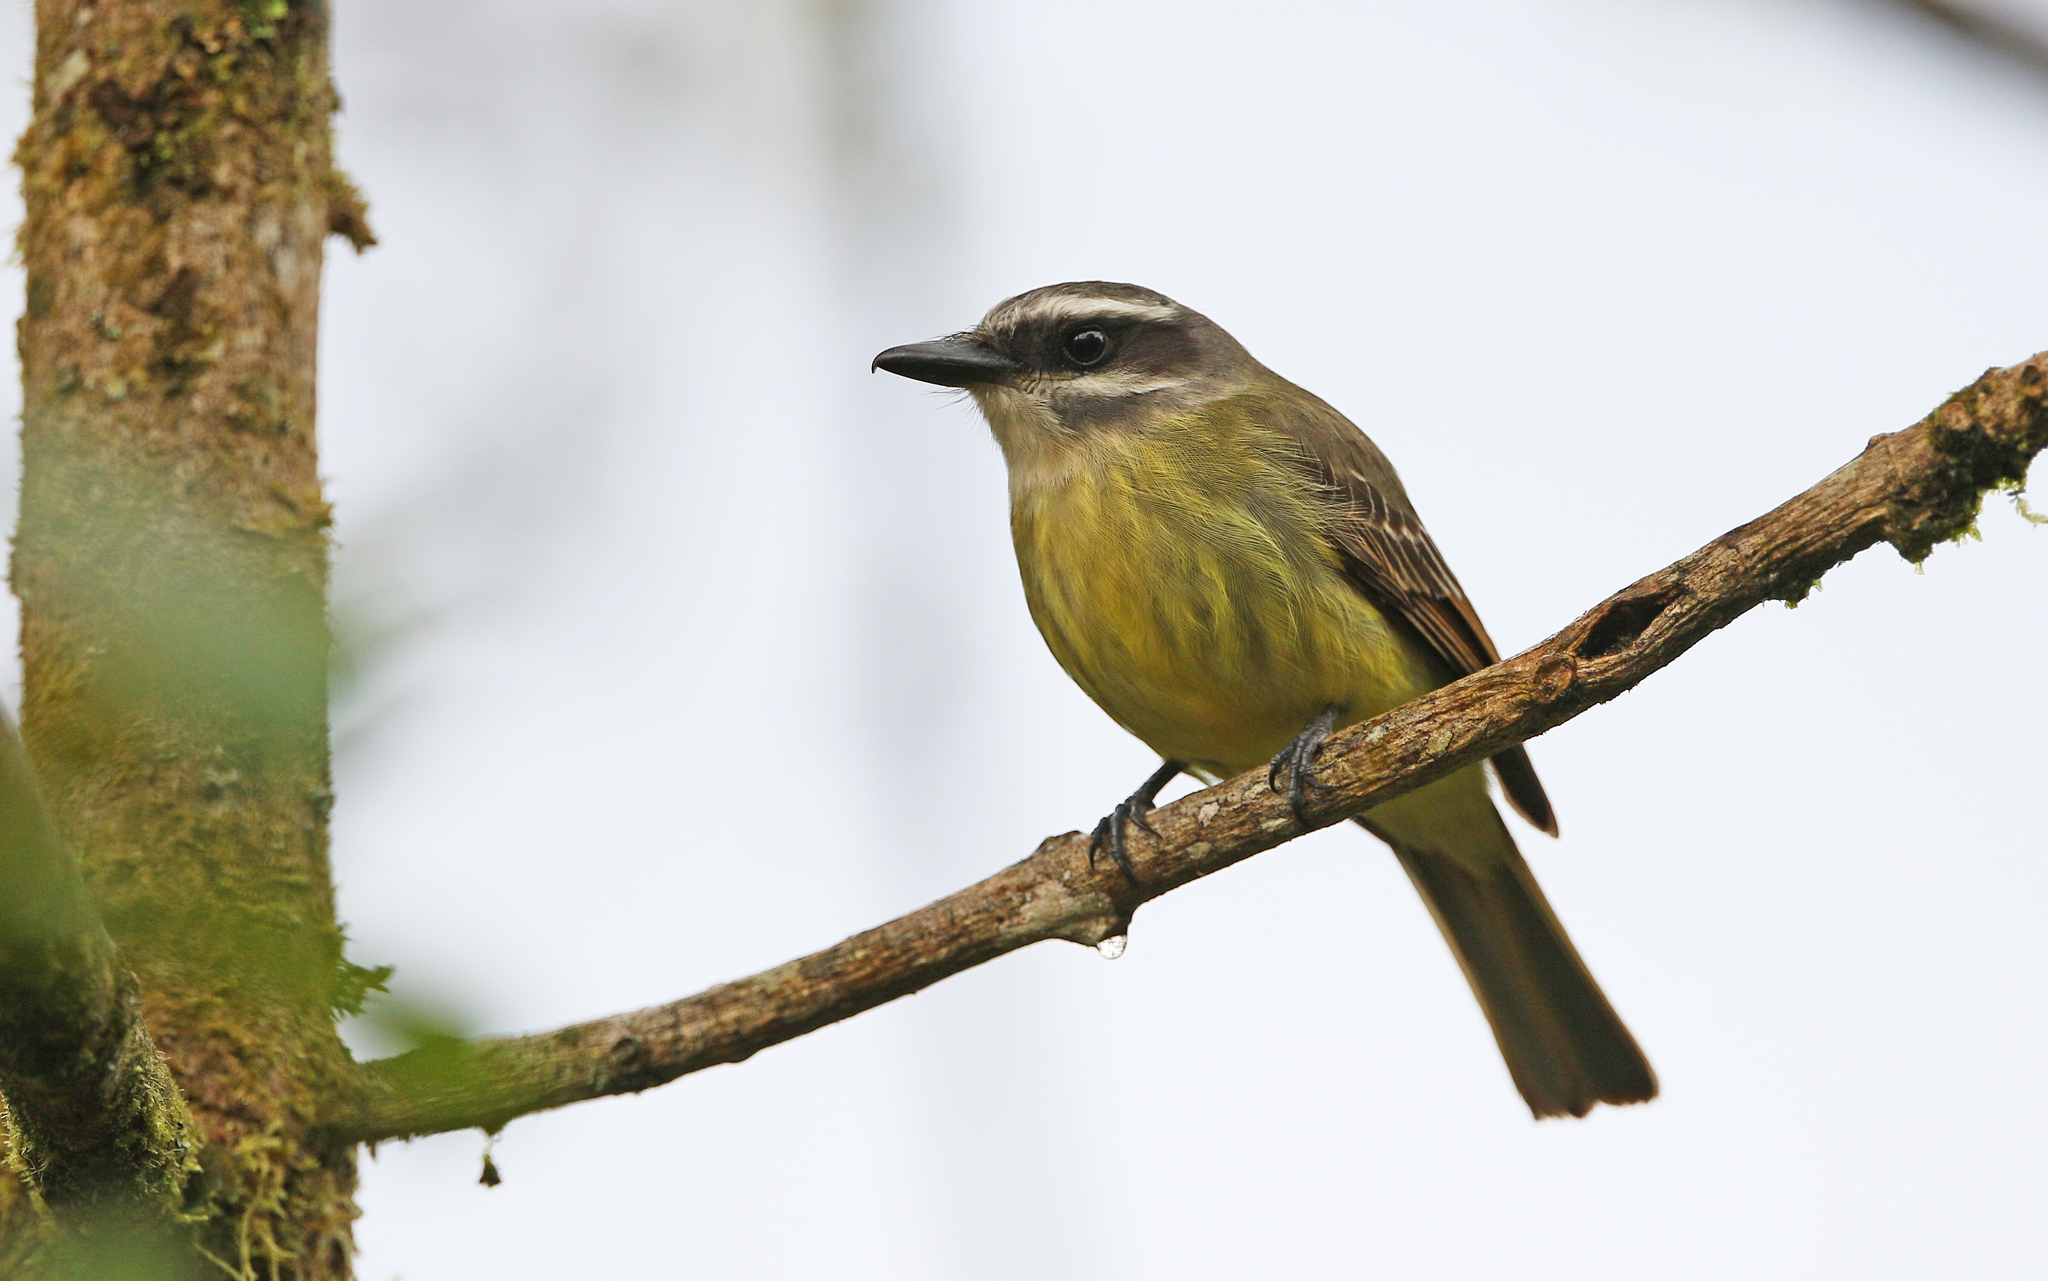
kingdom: Animalia
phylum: Chordata
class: Aves
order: Passeriformes
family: Tyrannidae
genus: Myiodynastes
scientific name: Myiodynastes hemichrysus
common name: Golden-bellied flycatcher
